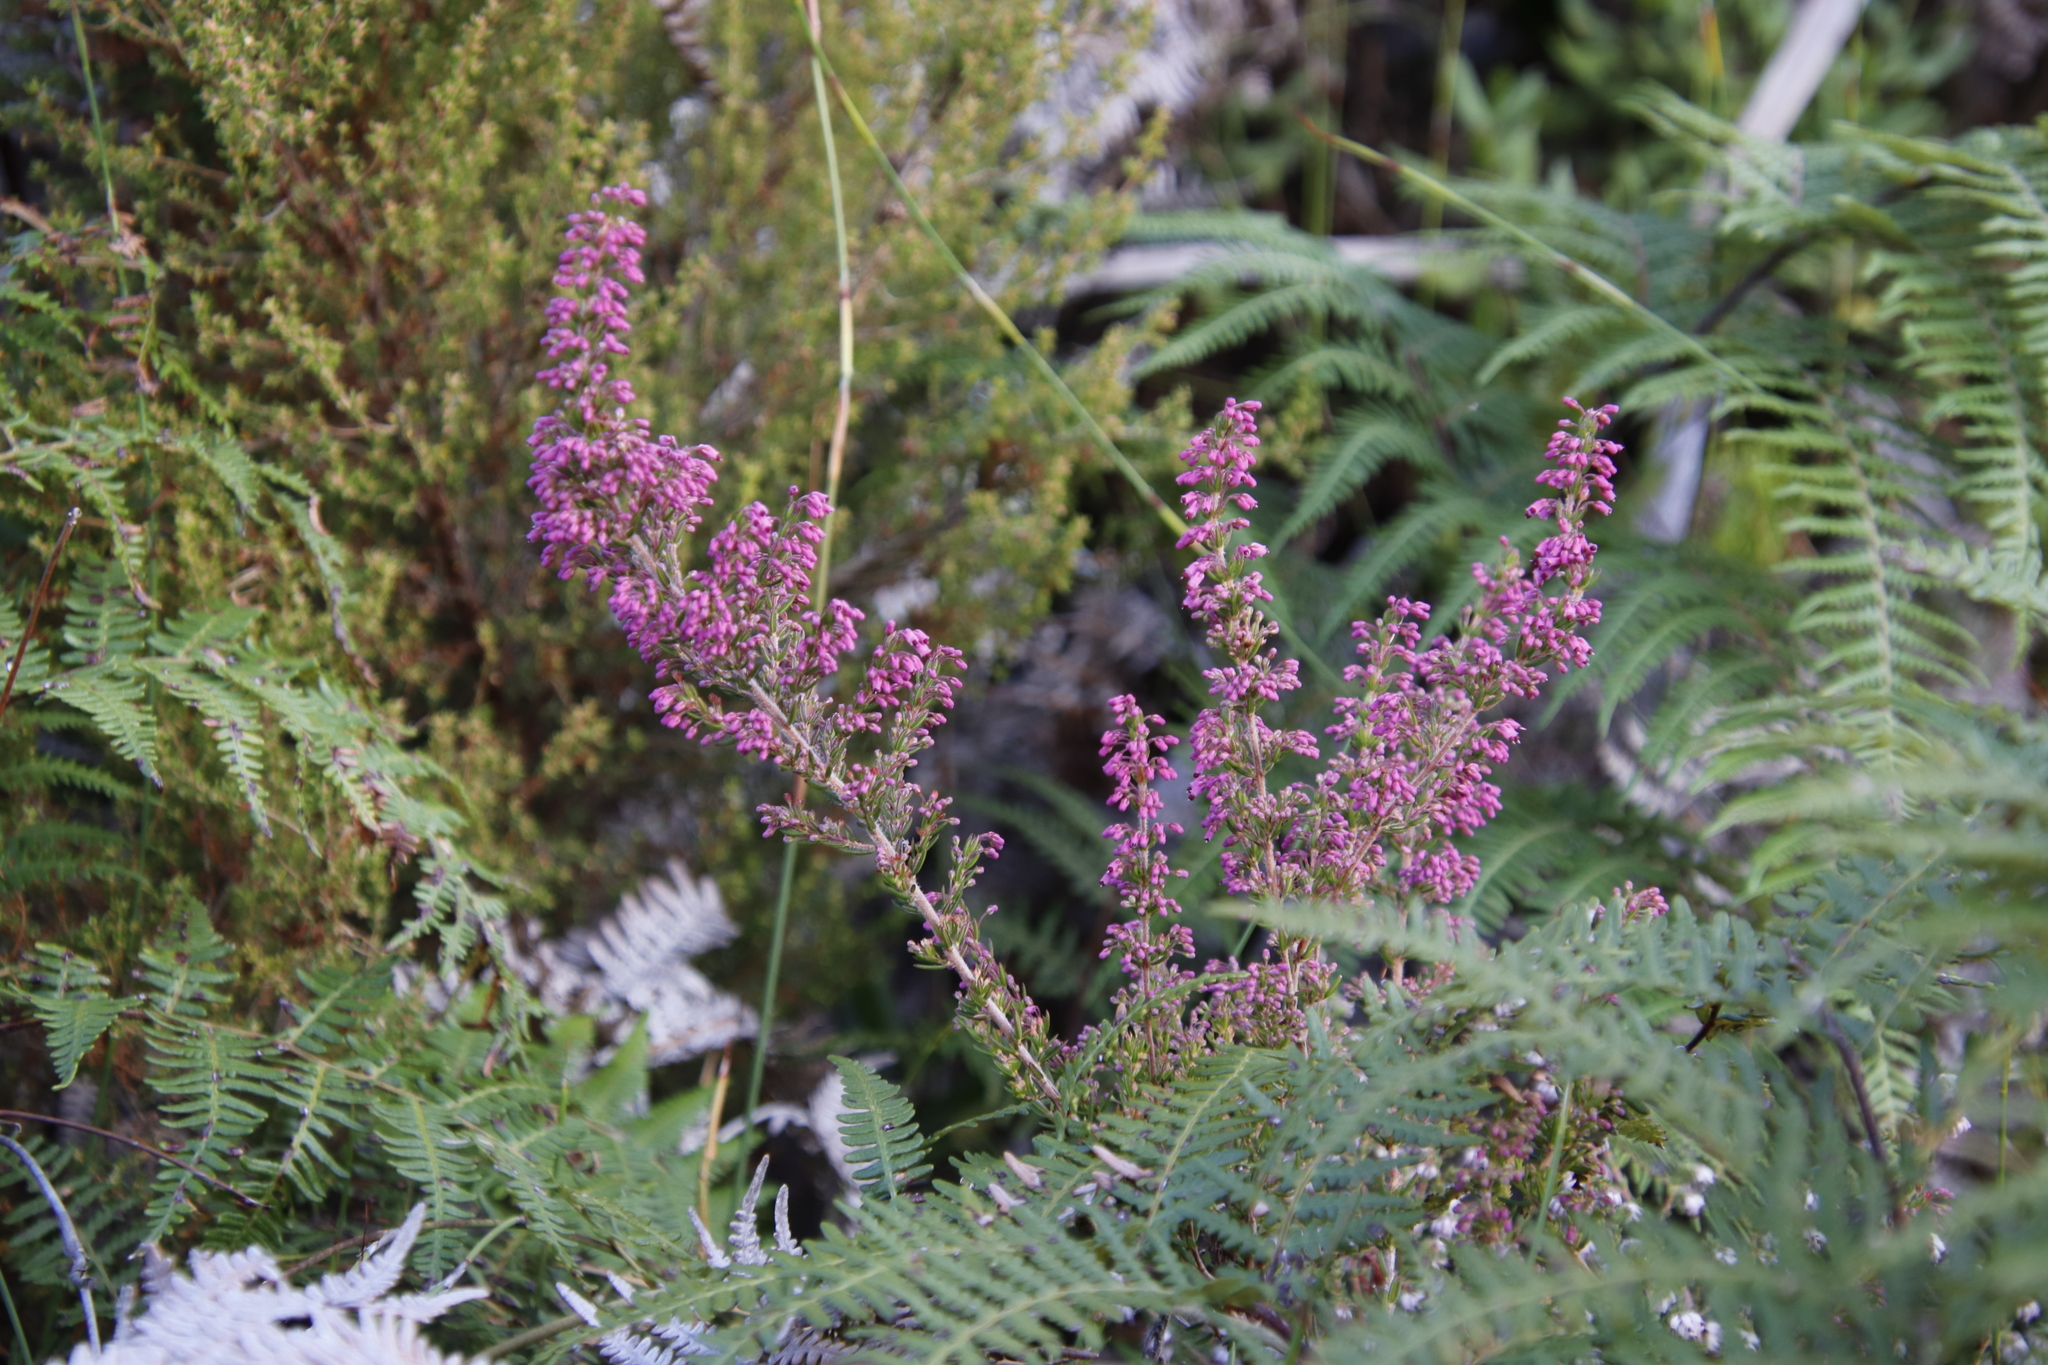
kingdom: Plantae
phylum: Tracheophyta
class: Magnoliopsida
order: Ericales
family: Ericaceae
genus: Erica
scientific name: Erica nudiflora
